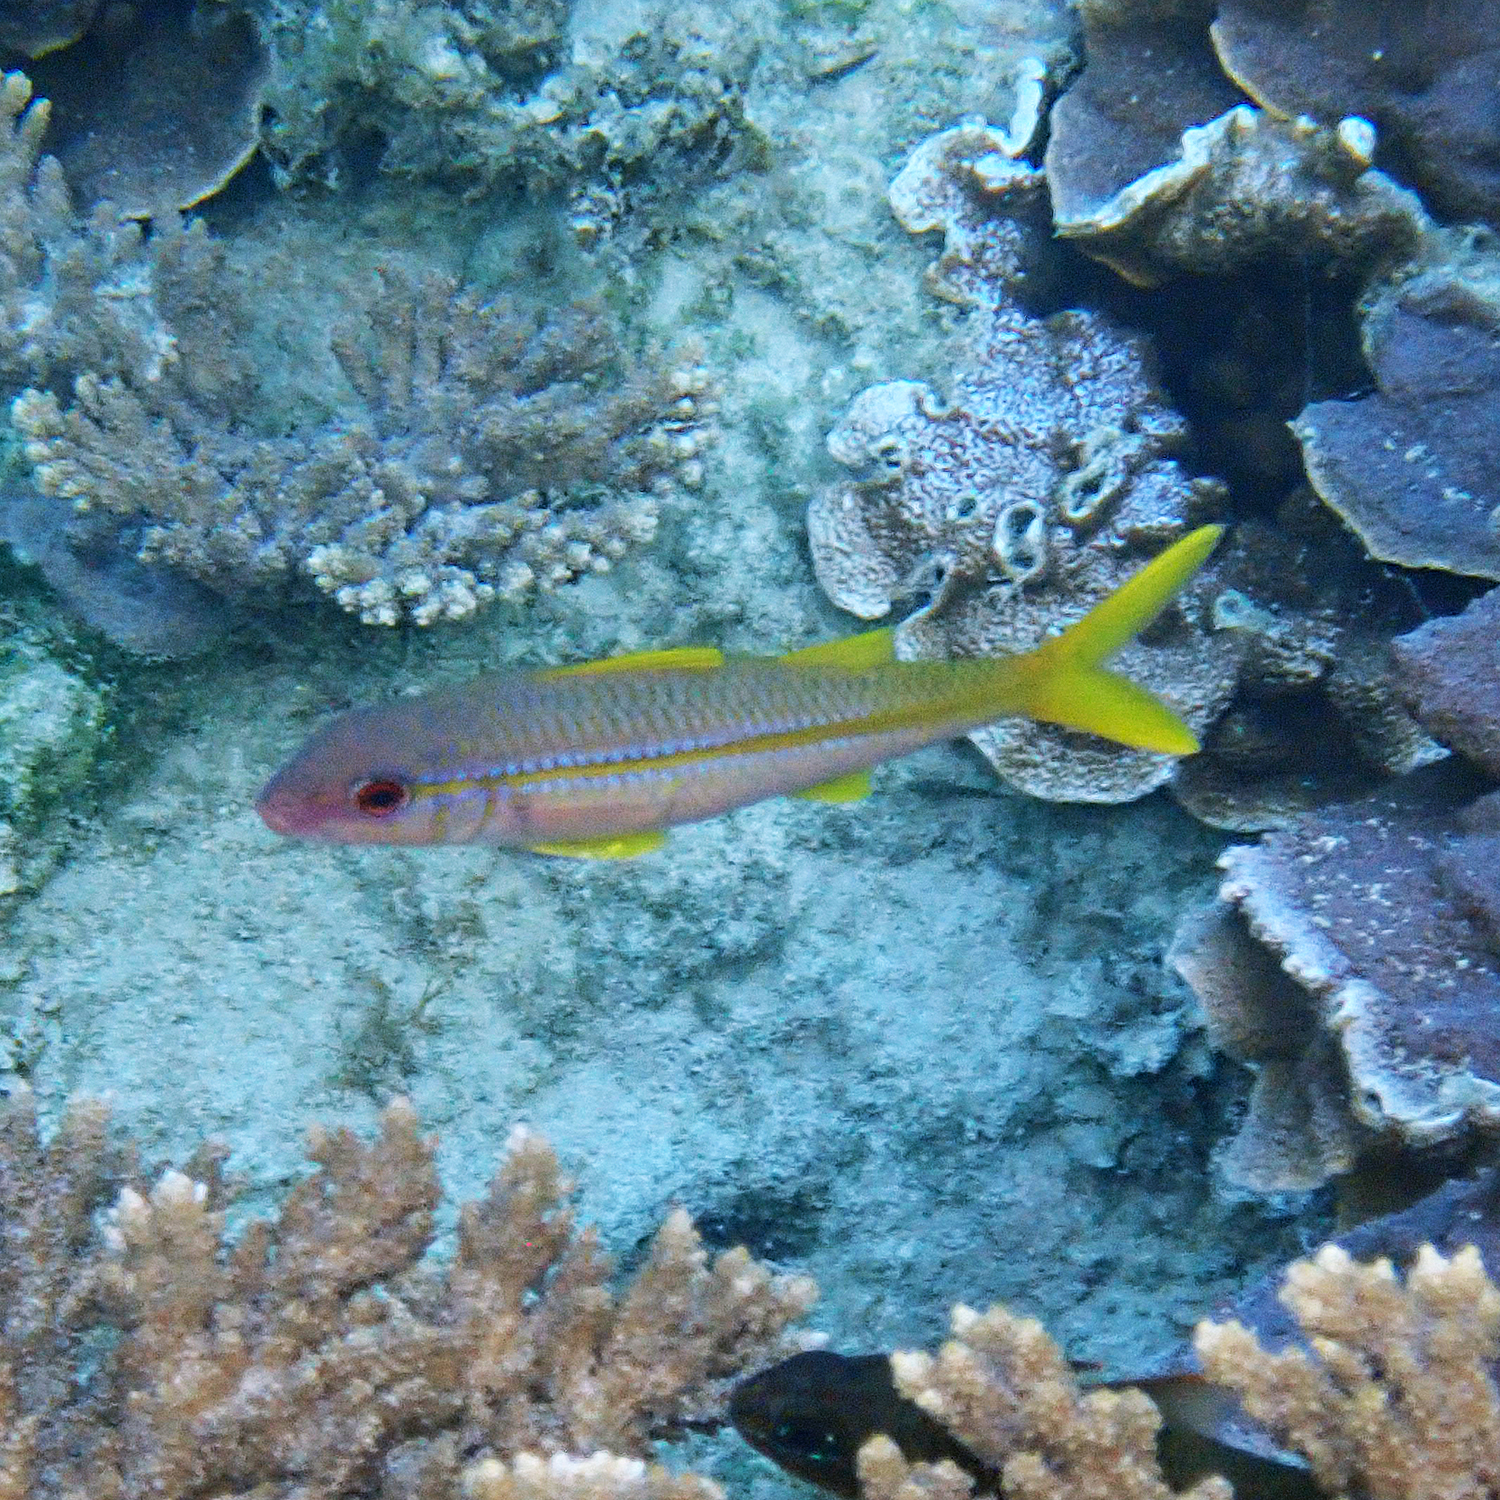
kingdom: Animalia
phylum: Chordata
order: Perciformes
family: Mullidae
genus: Mulloidichthys
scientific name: Mulloidichthys vanicolensis
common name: Yellowfin goatfish
